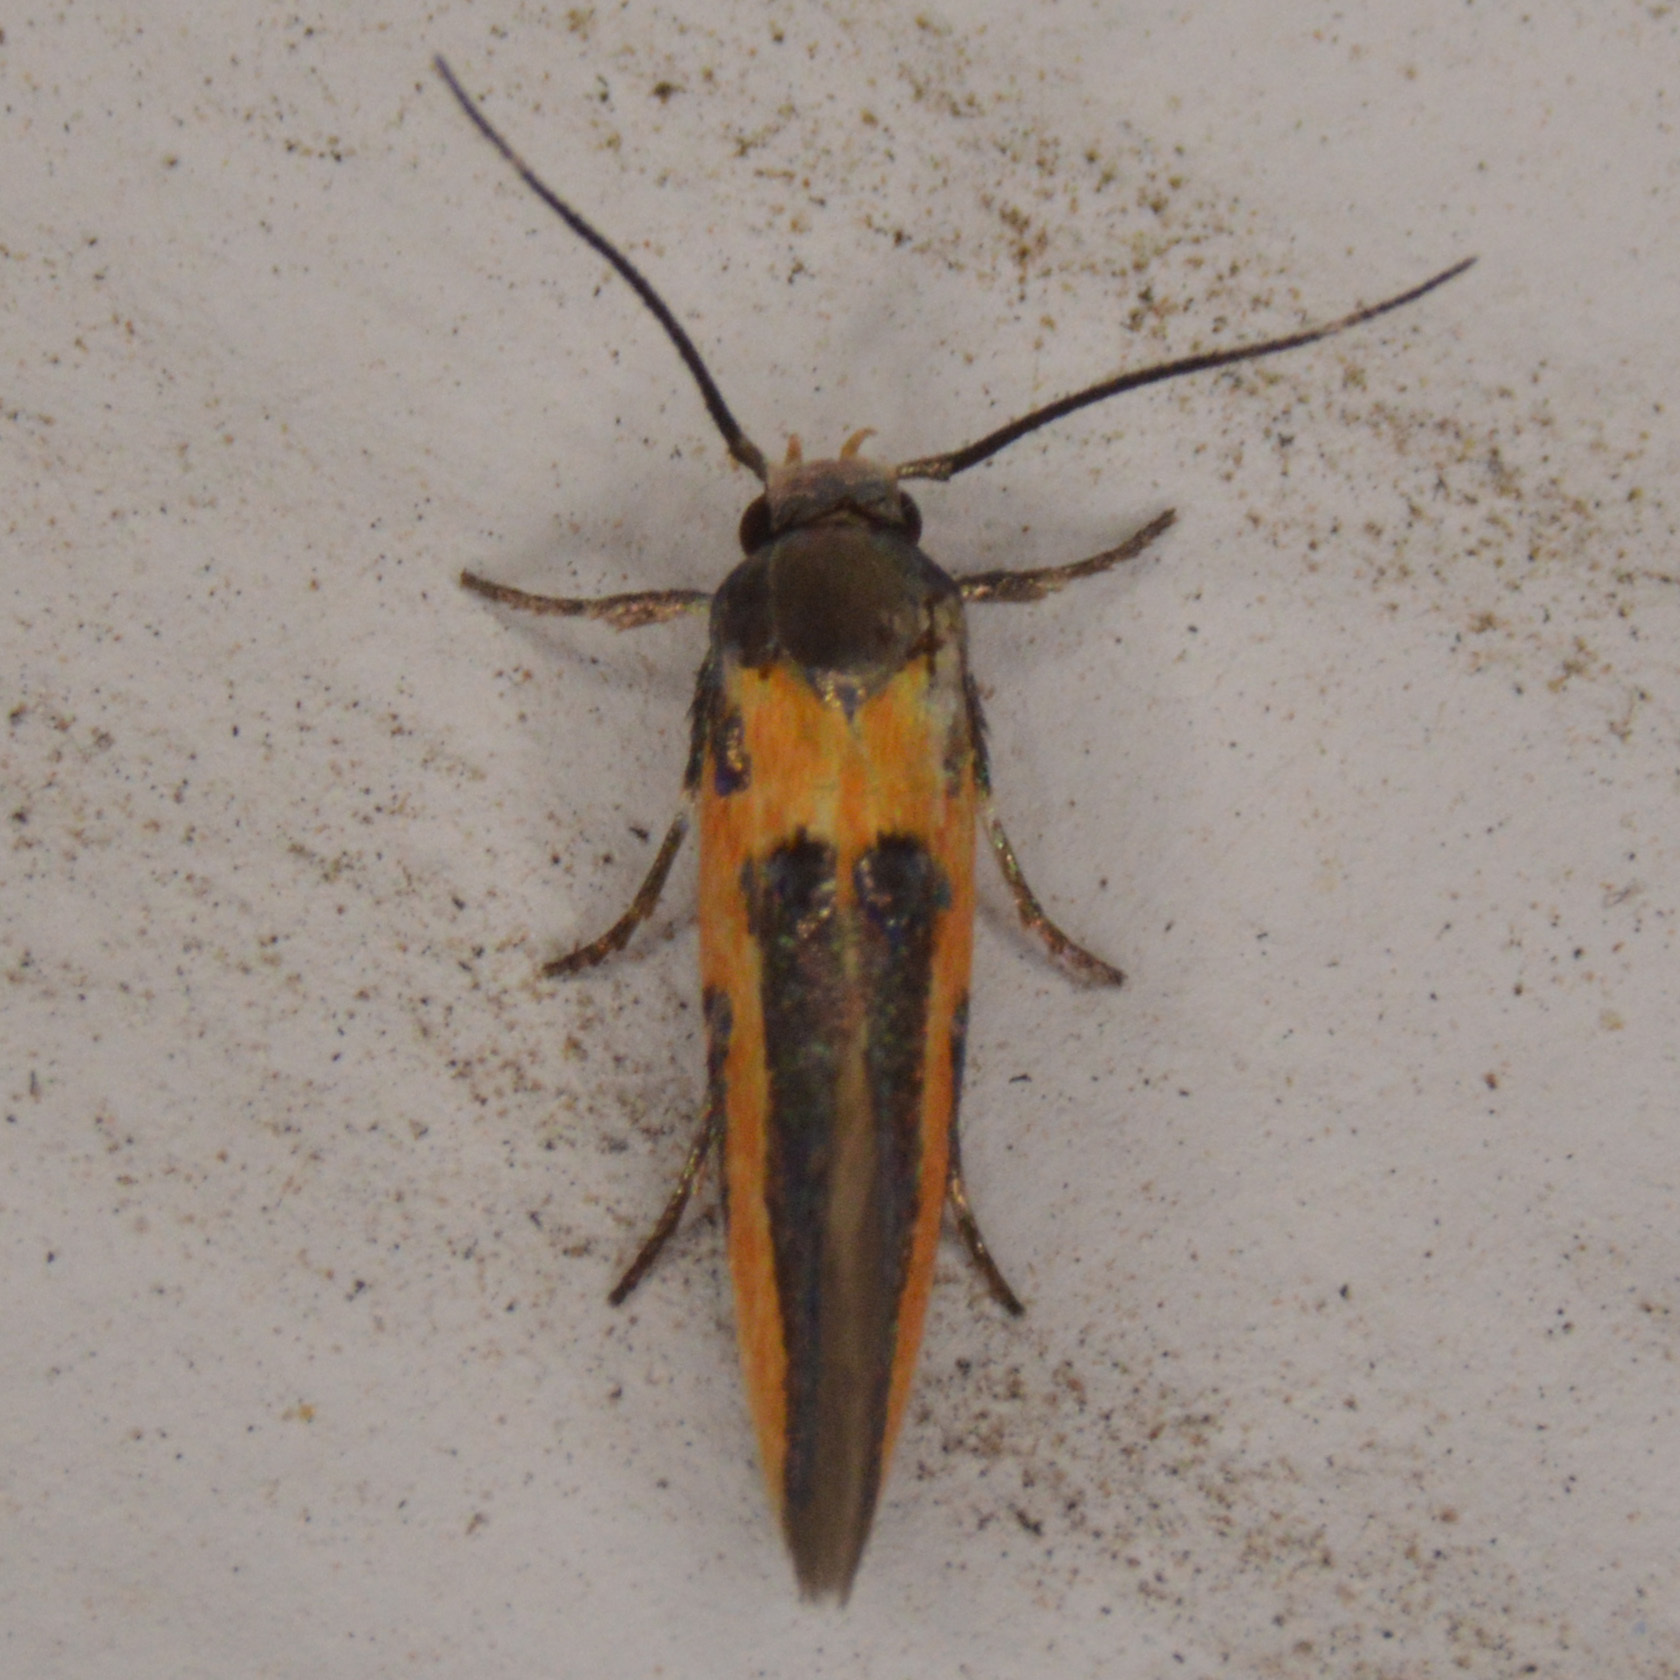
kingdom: Animalia
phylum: Arthropoda
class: Insecta
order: Lepidoptera
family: Cosmopterigidae
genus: Euclemensia
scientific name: Euclemensia bassettella
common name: Kermes scale moth
